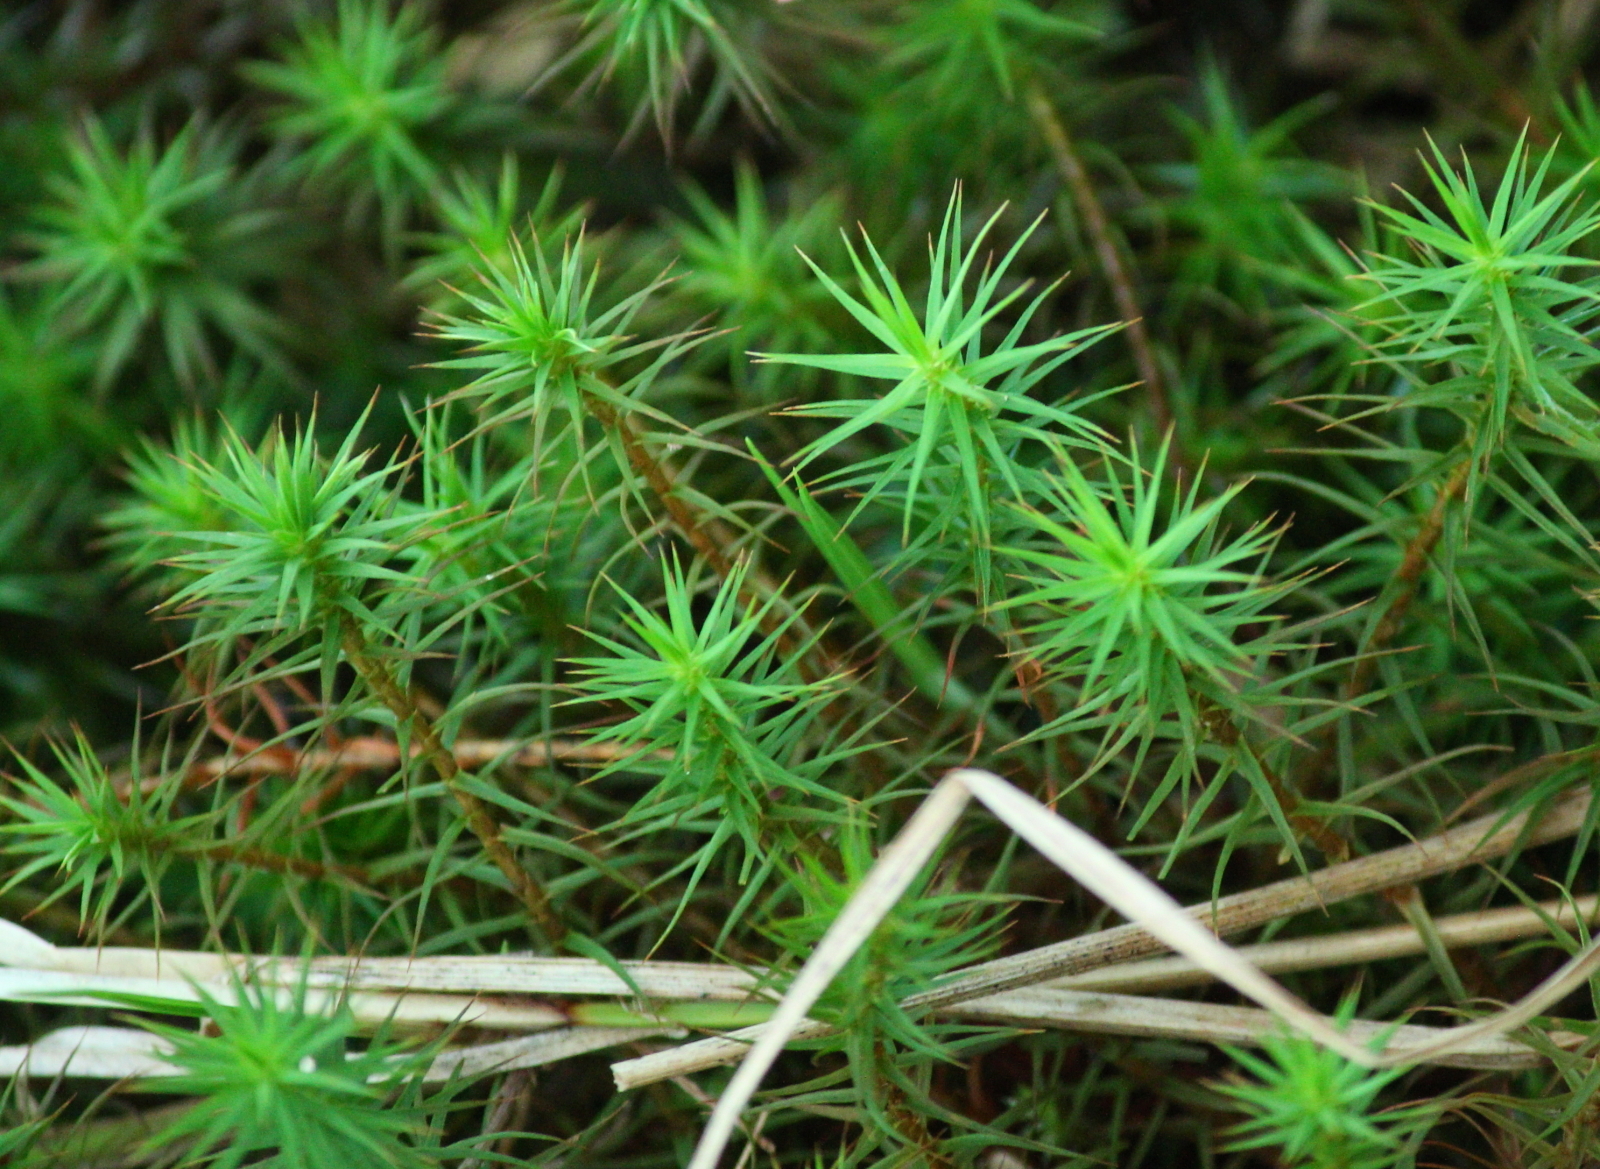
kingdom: Plantae
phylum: Bryophyta
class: Polytrichopsida
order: Polytrichales
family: Polytrichaceae
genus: Polytrichum
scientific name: Polytrichum commune
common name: Common haircap
